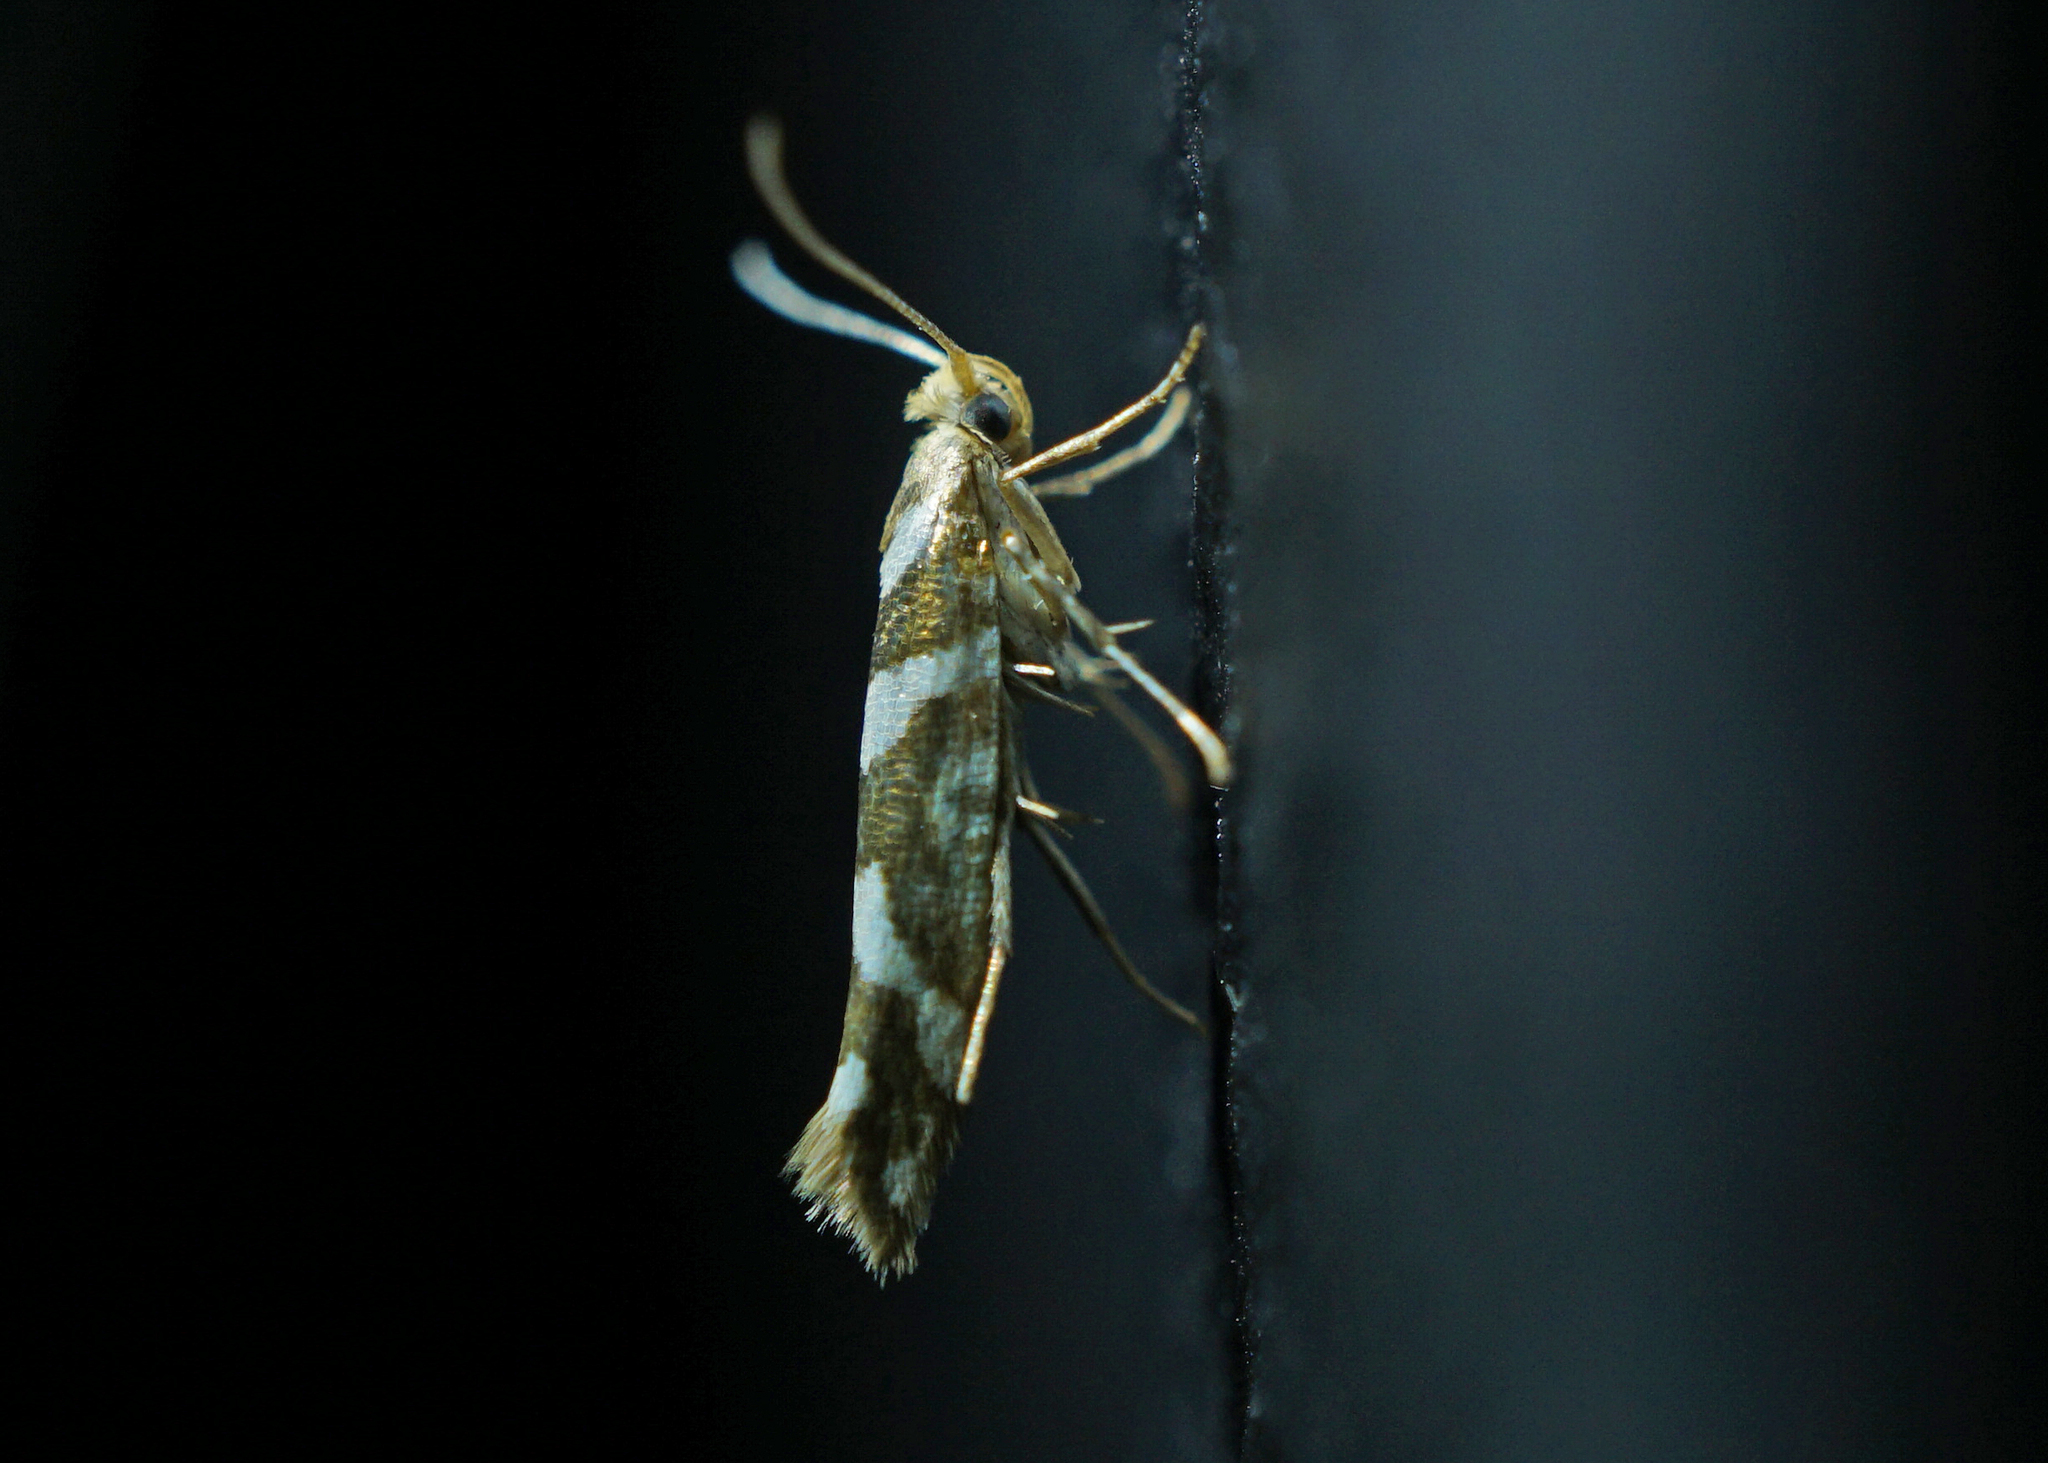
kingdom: Animalia
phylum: Arthropoda
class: Insecta
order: Lepidoptera
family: Argyresthiidae
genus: Argyresthia
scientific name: Argyresthia goedartella
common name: Golden argent
